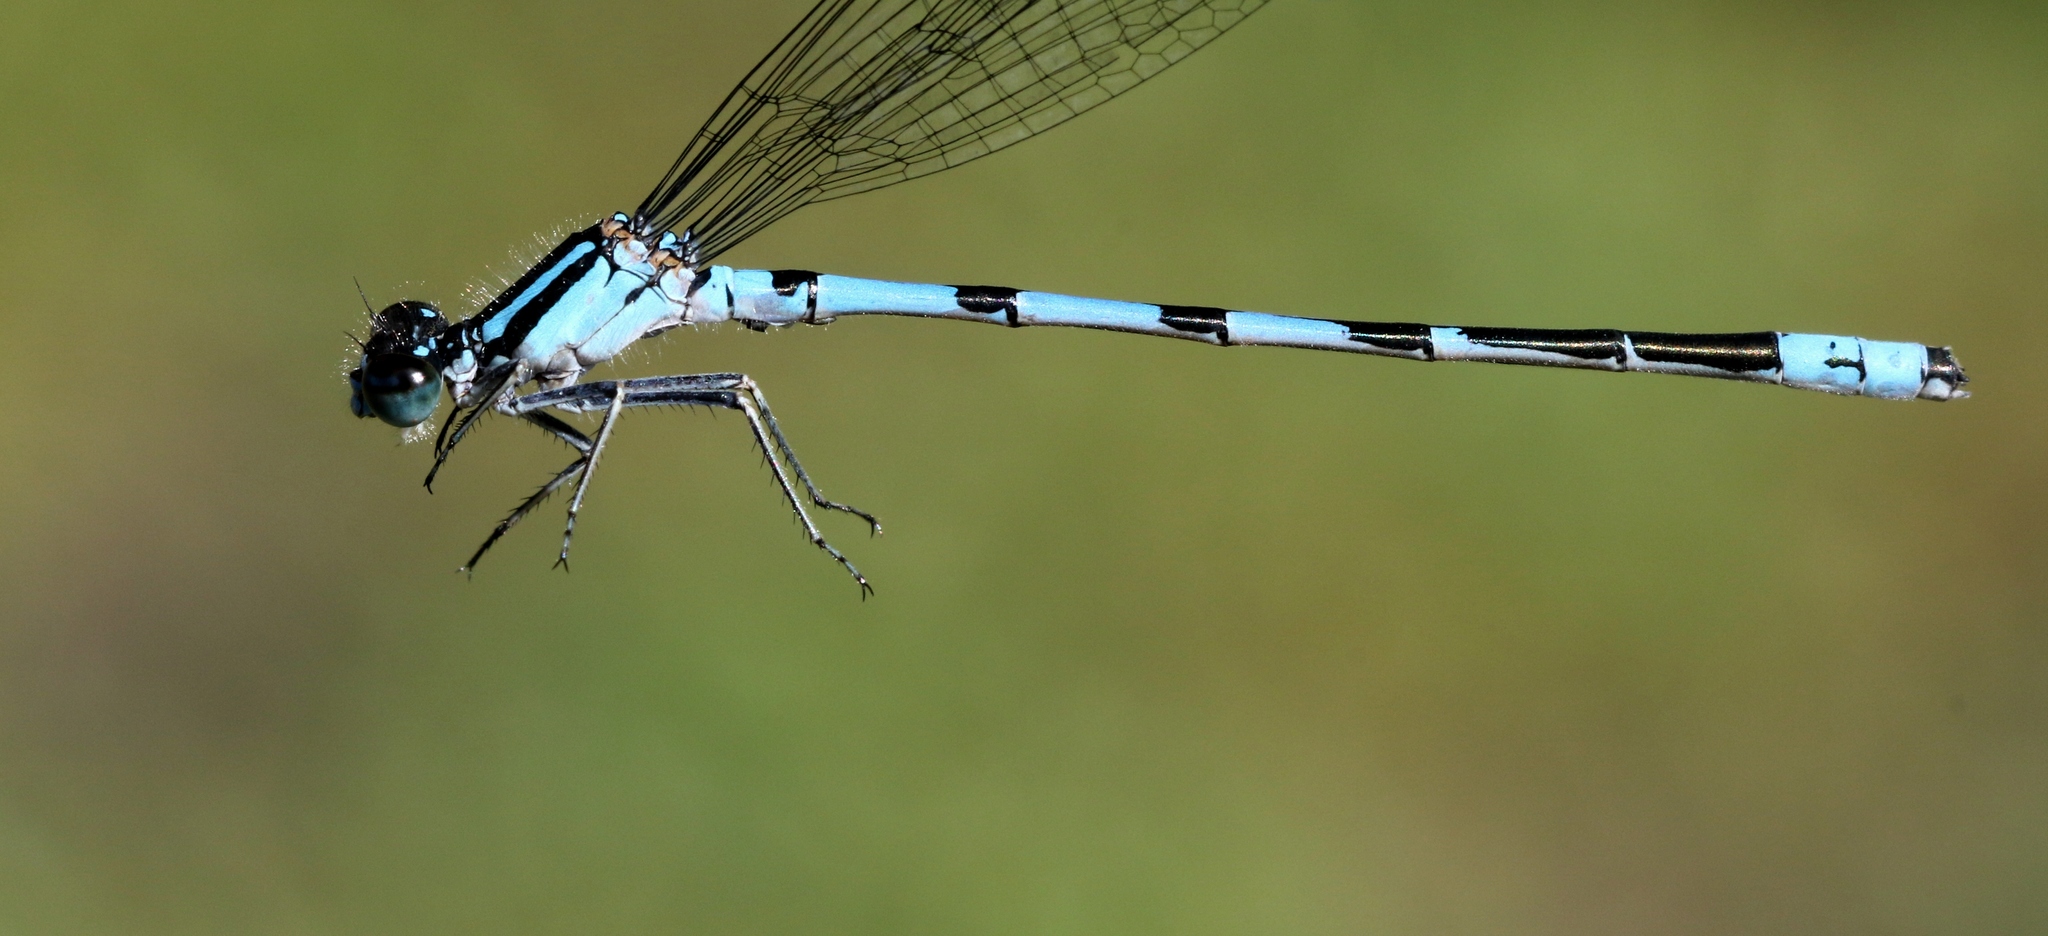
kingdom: Animalia
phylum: Arthropoda
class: Insecta
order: Odonata
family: Coenagrionidae
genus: Enallagma
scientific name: Enallagma hageni
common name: Hagen's bluet
